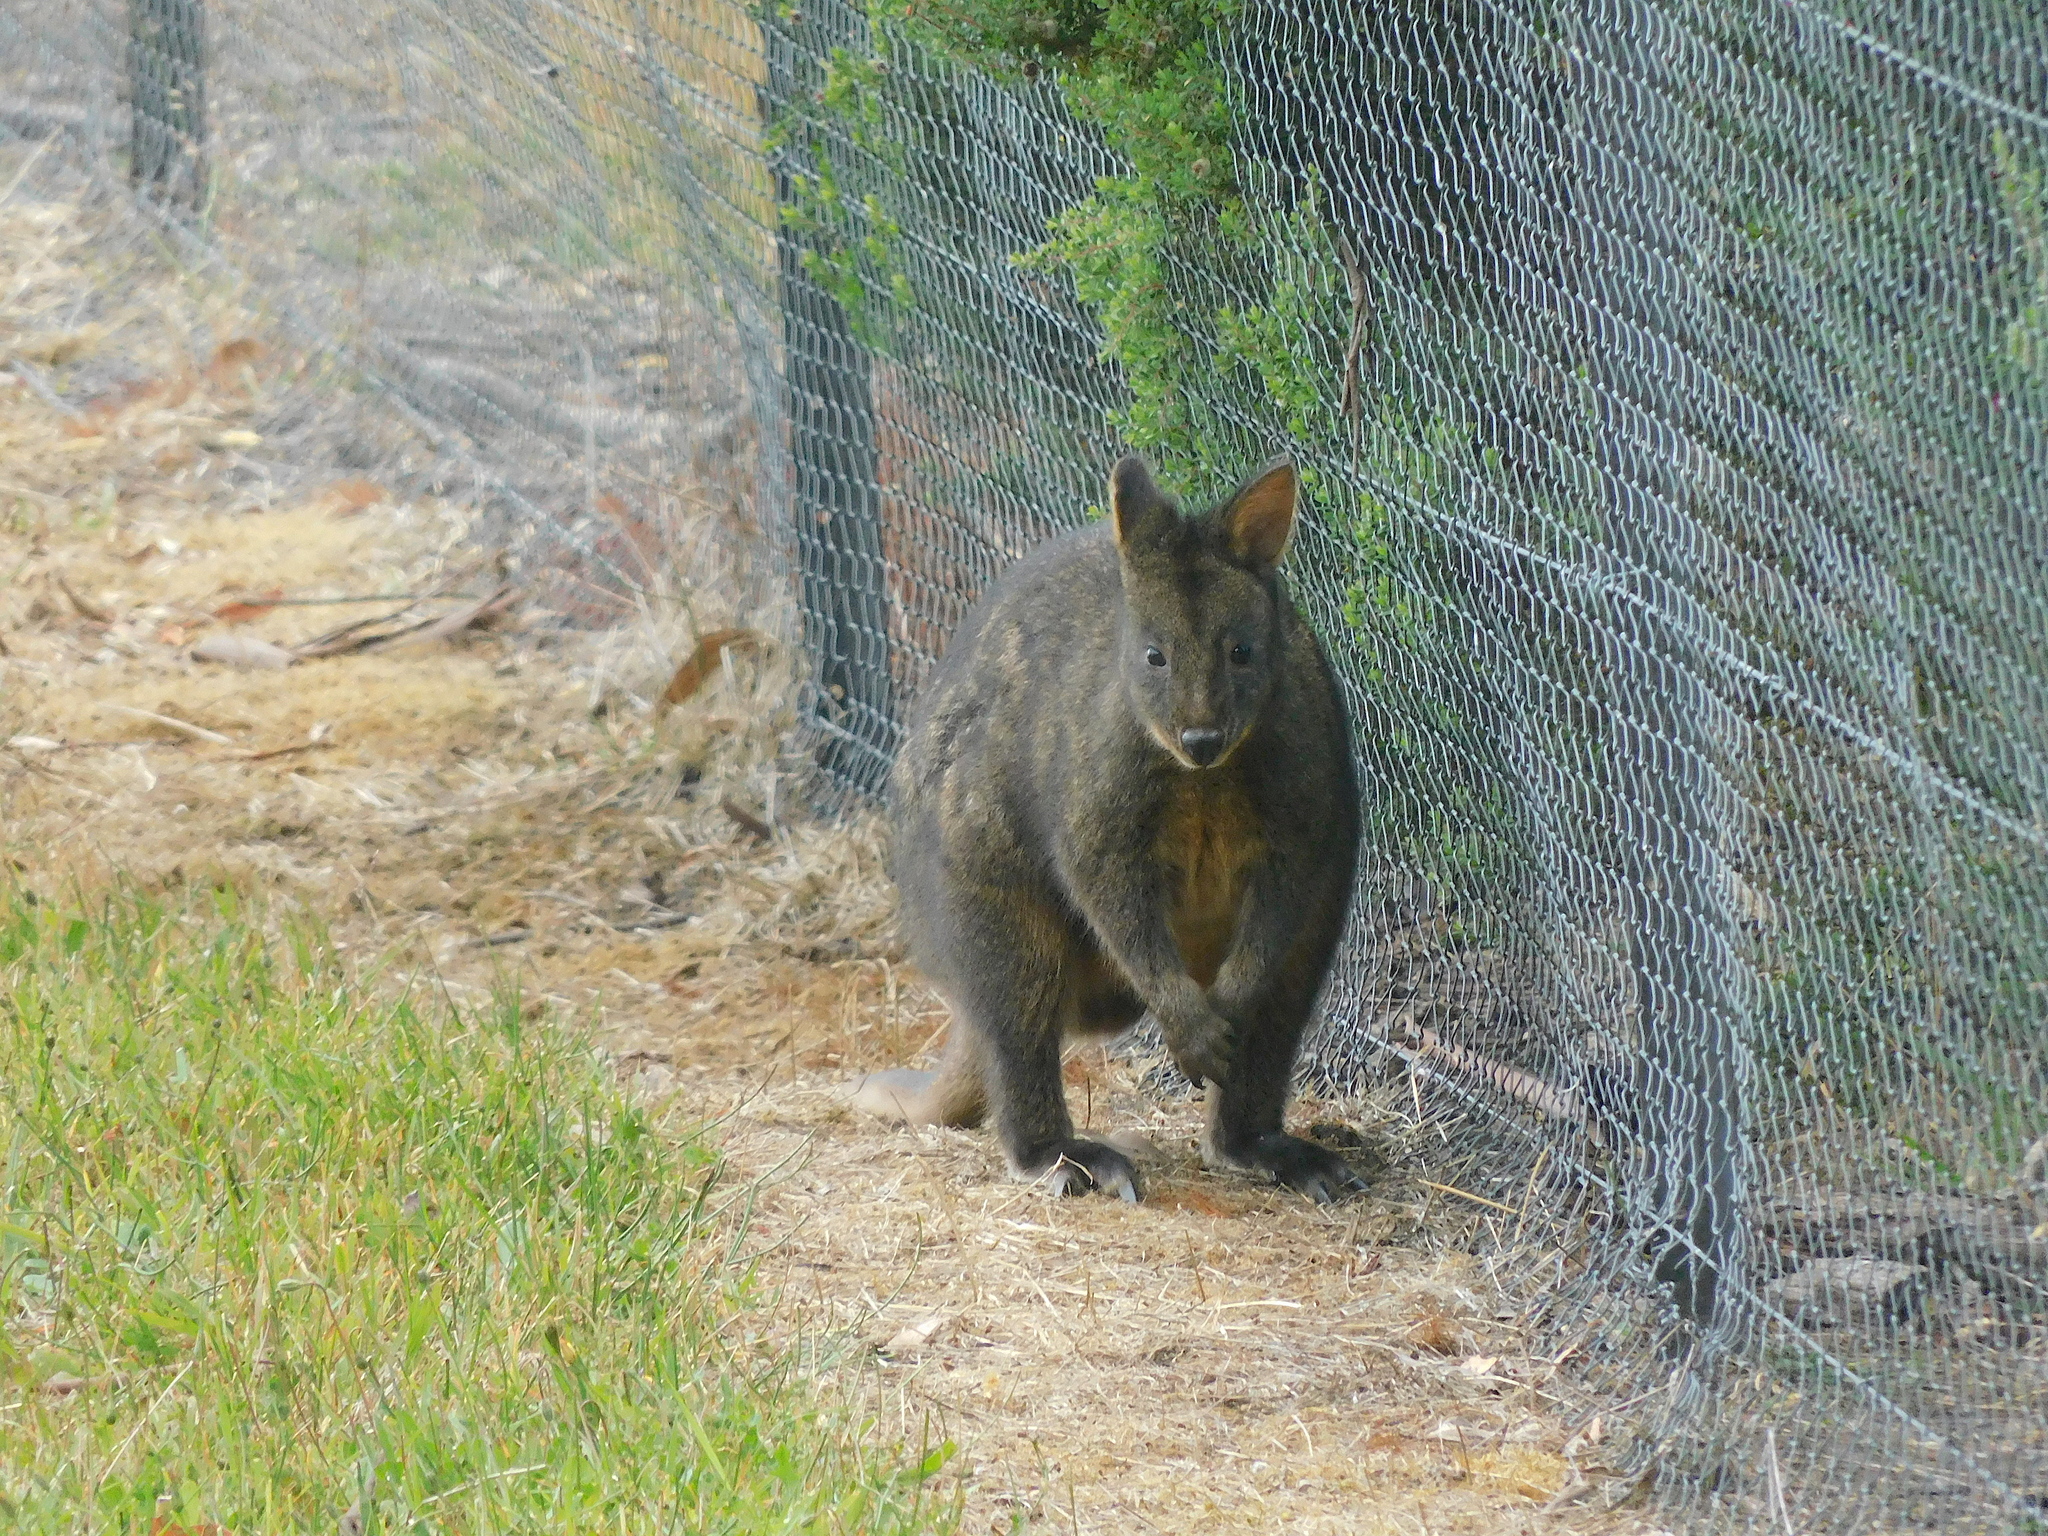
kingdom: Animalia
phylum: Chordata
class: Mammalia
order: Diprotodontia
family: Macropodidae
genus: Thylogale
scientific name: Thylogale billardierii
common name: Tasmanian pademelon
